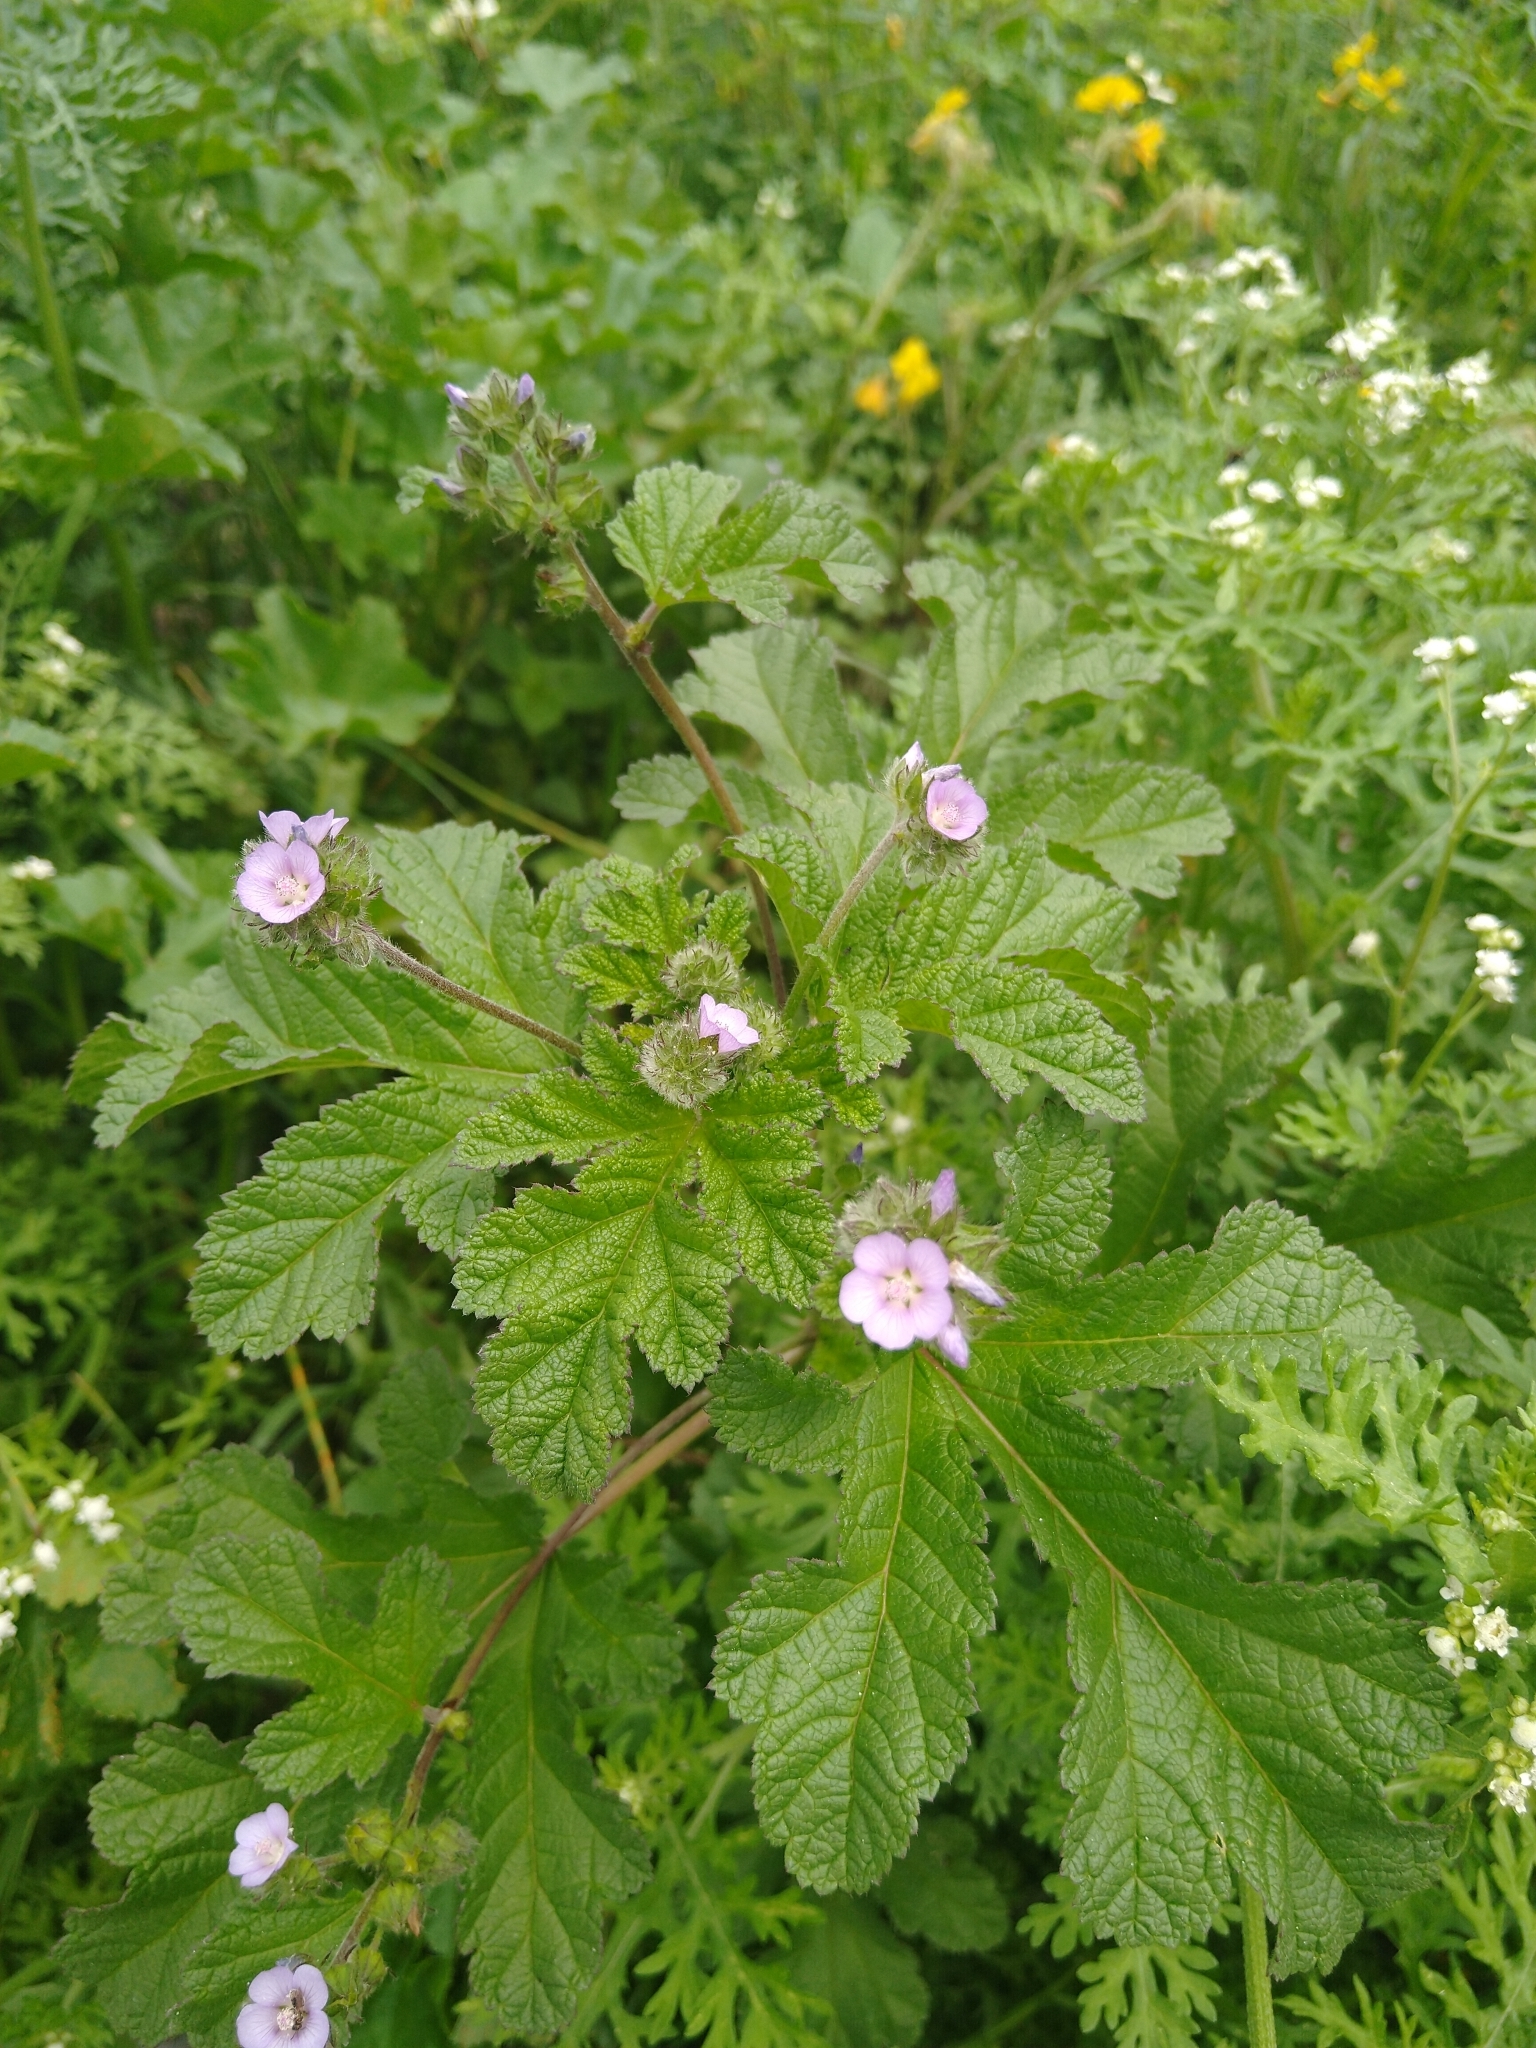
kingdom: Plantae
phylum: Tracheophyta
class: Magnoliopsida
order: Malvales
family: Malvaceae
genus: Fuertesimalva
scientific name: Fuertesimalva limensis
